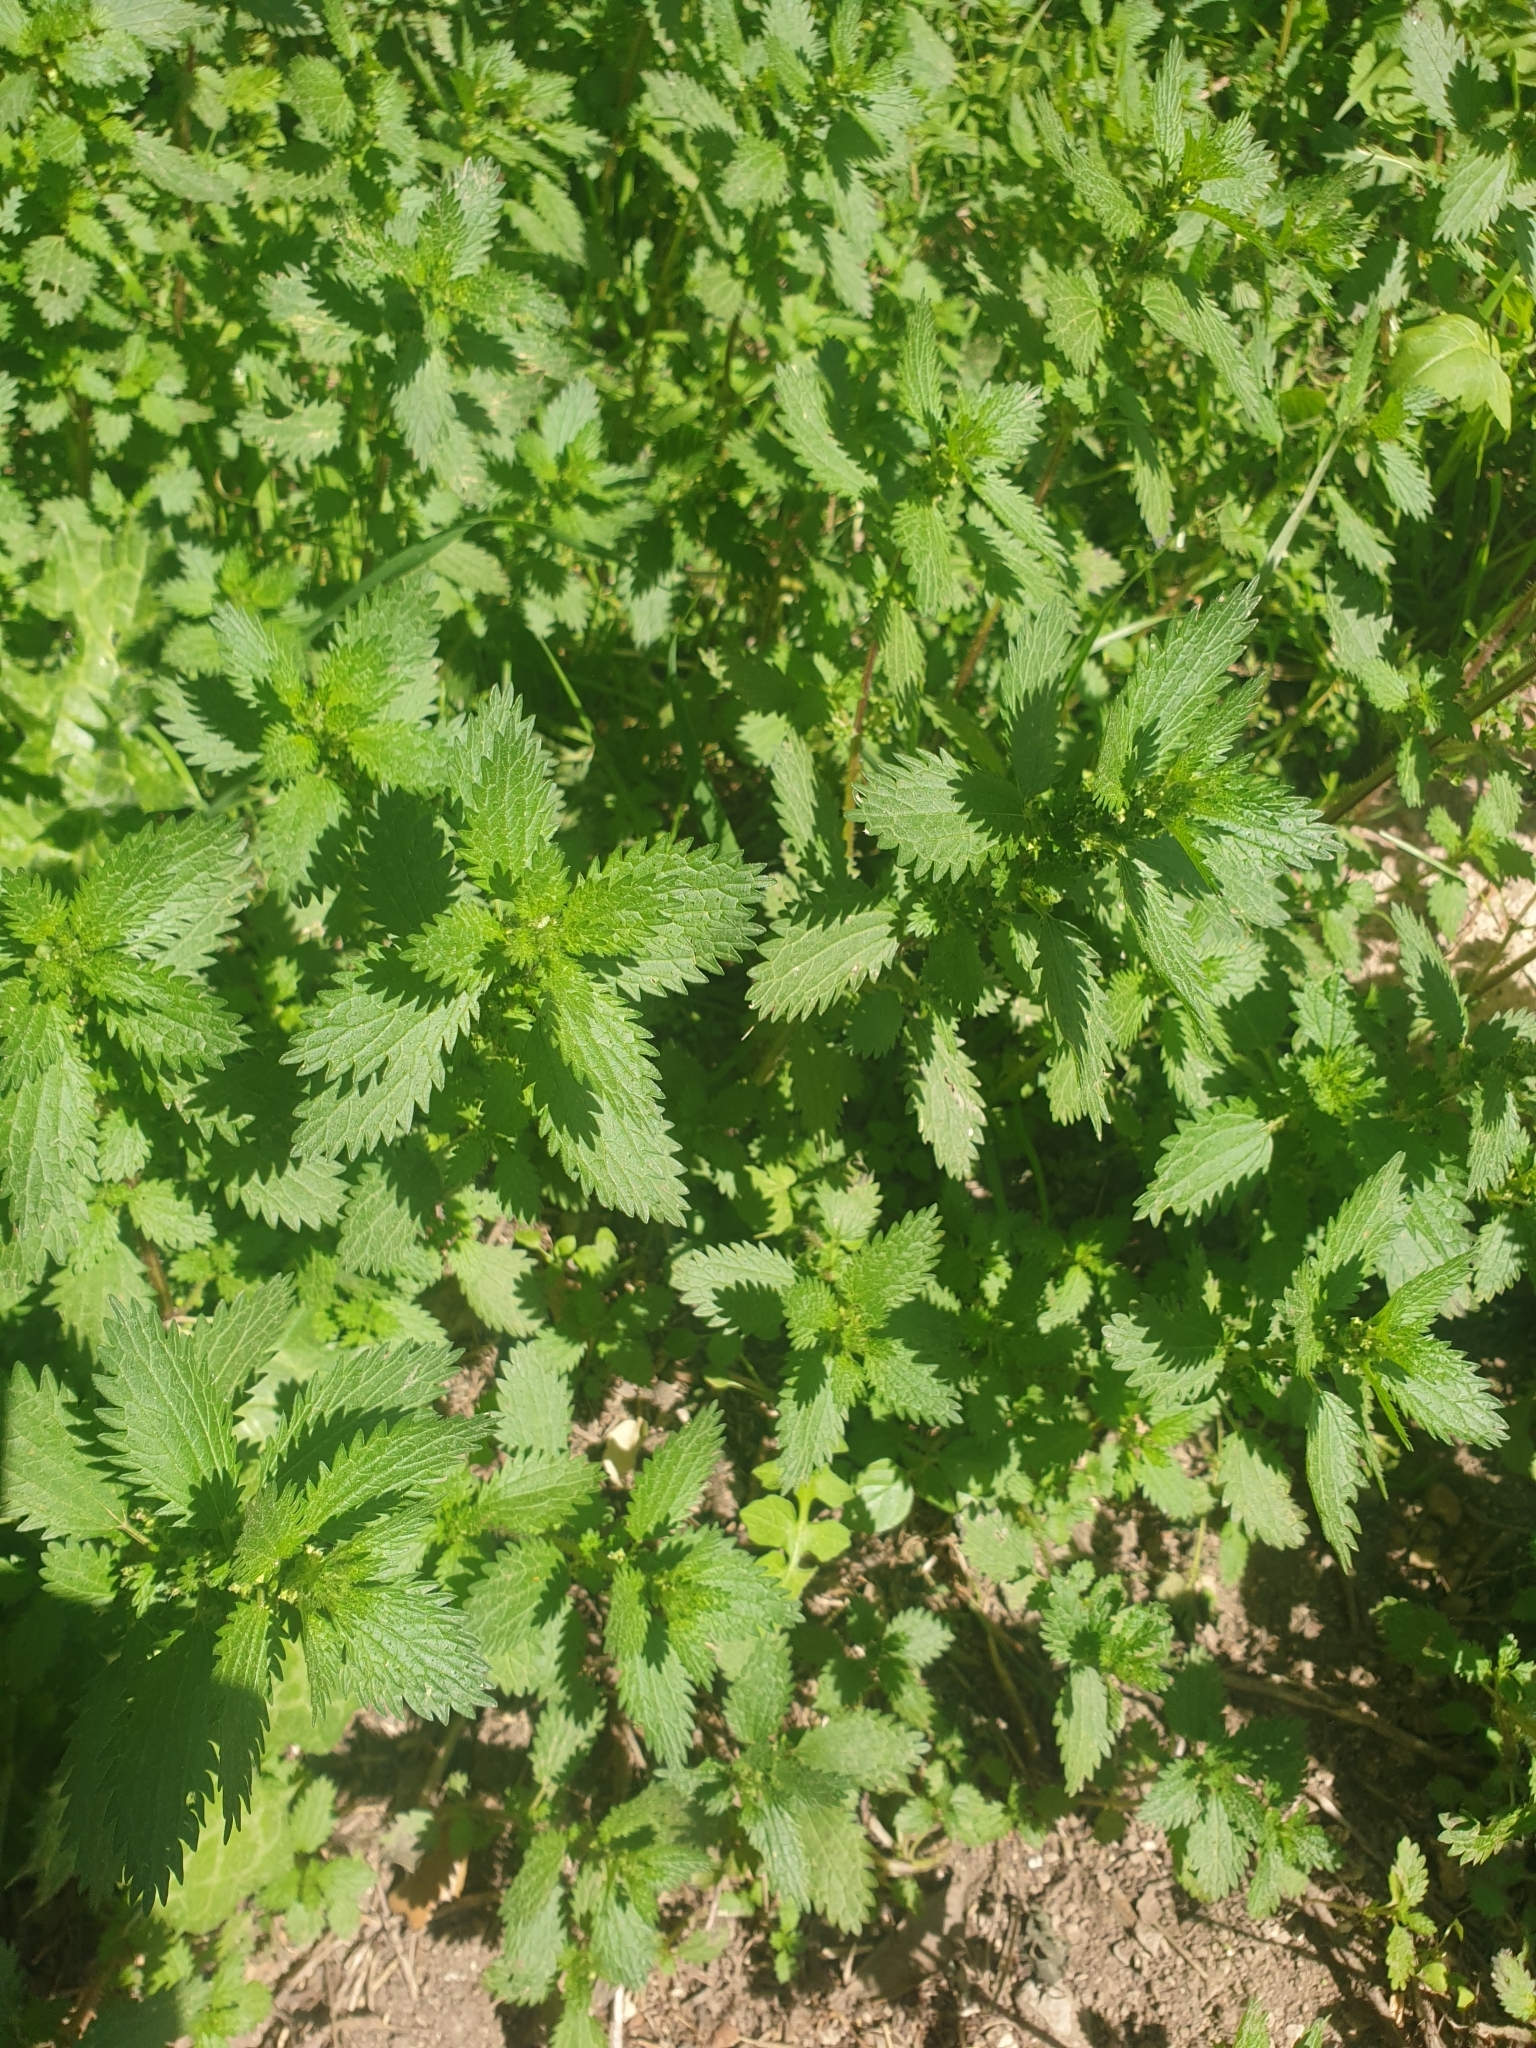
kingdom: Plantae
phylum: Tracheophyta
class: Magnoliopsida
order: Rosales
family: Urticaceae
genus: Urtica
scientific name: Urtica urens
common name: Dwarf nettle
